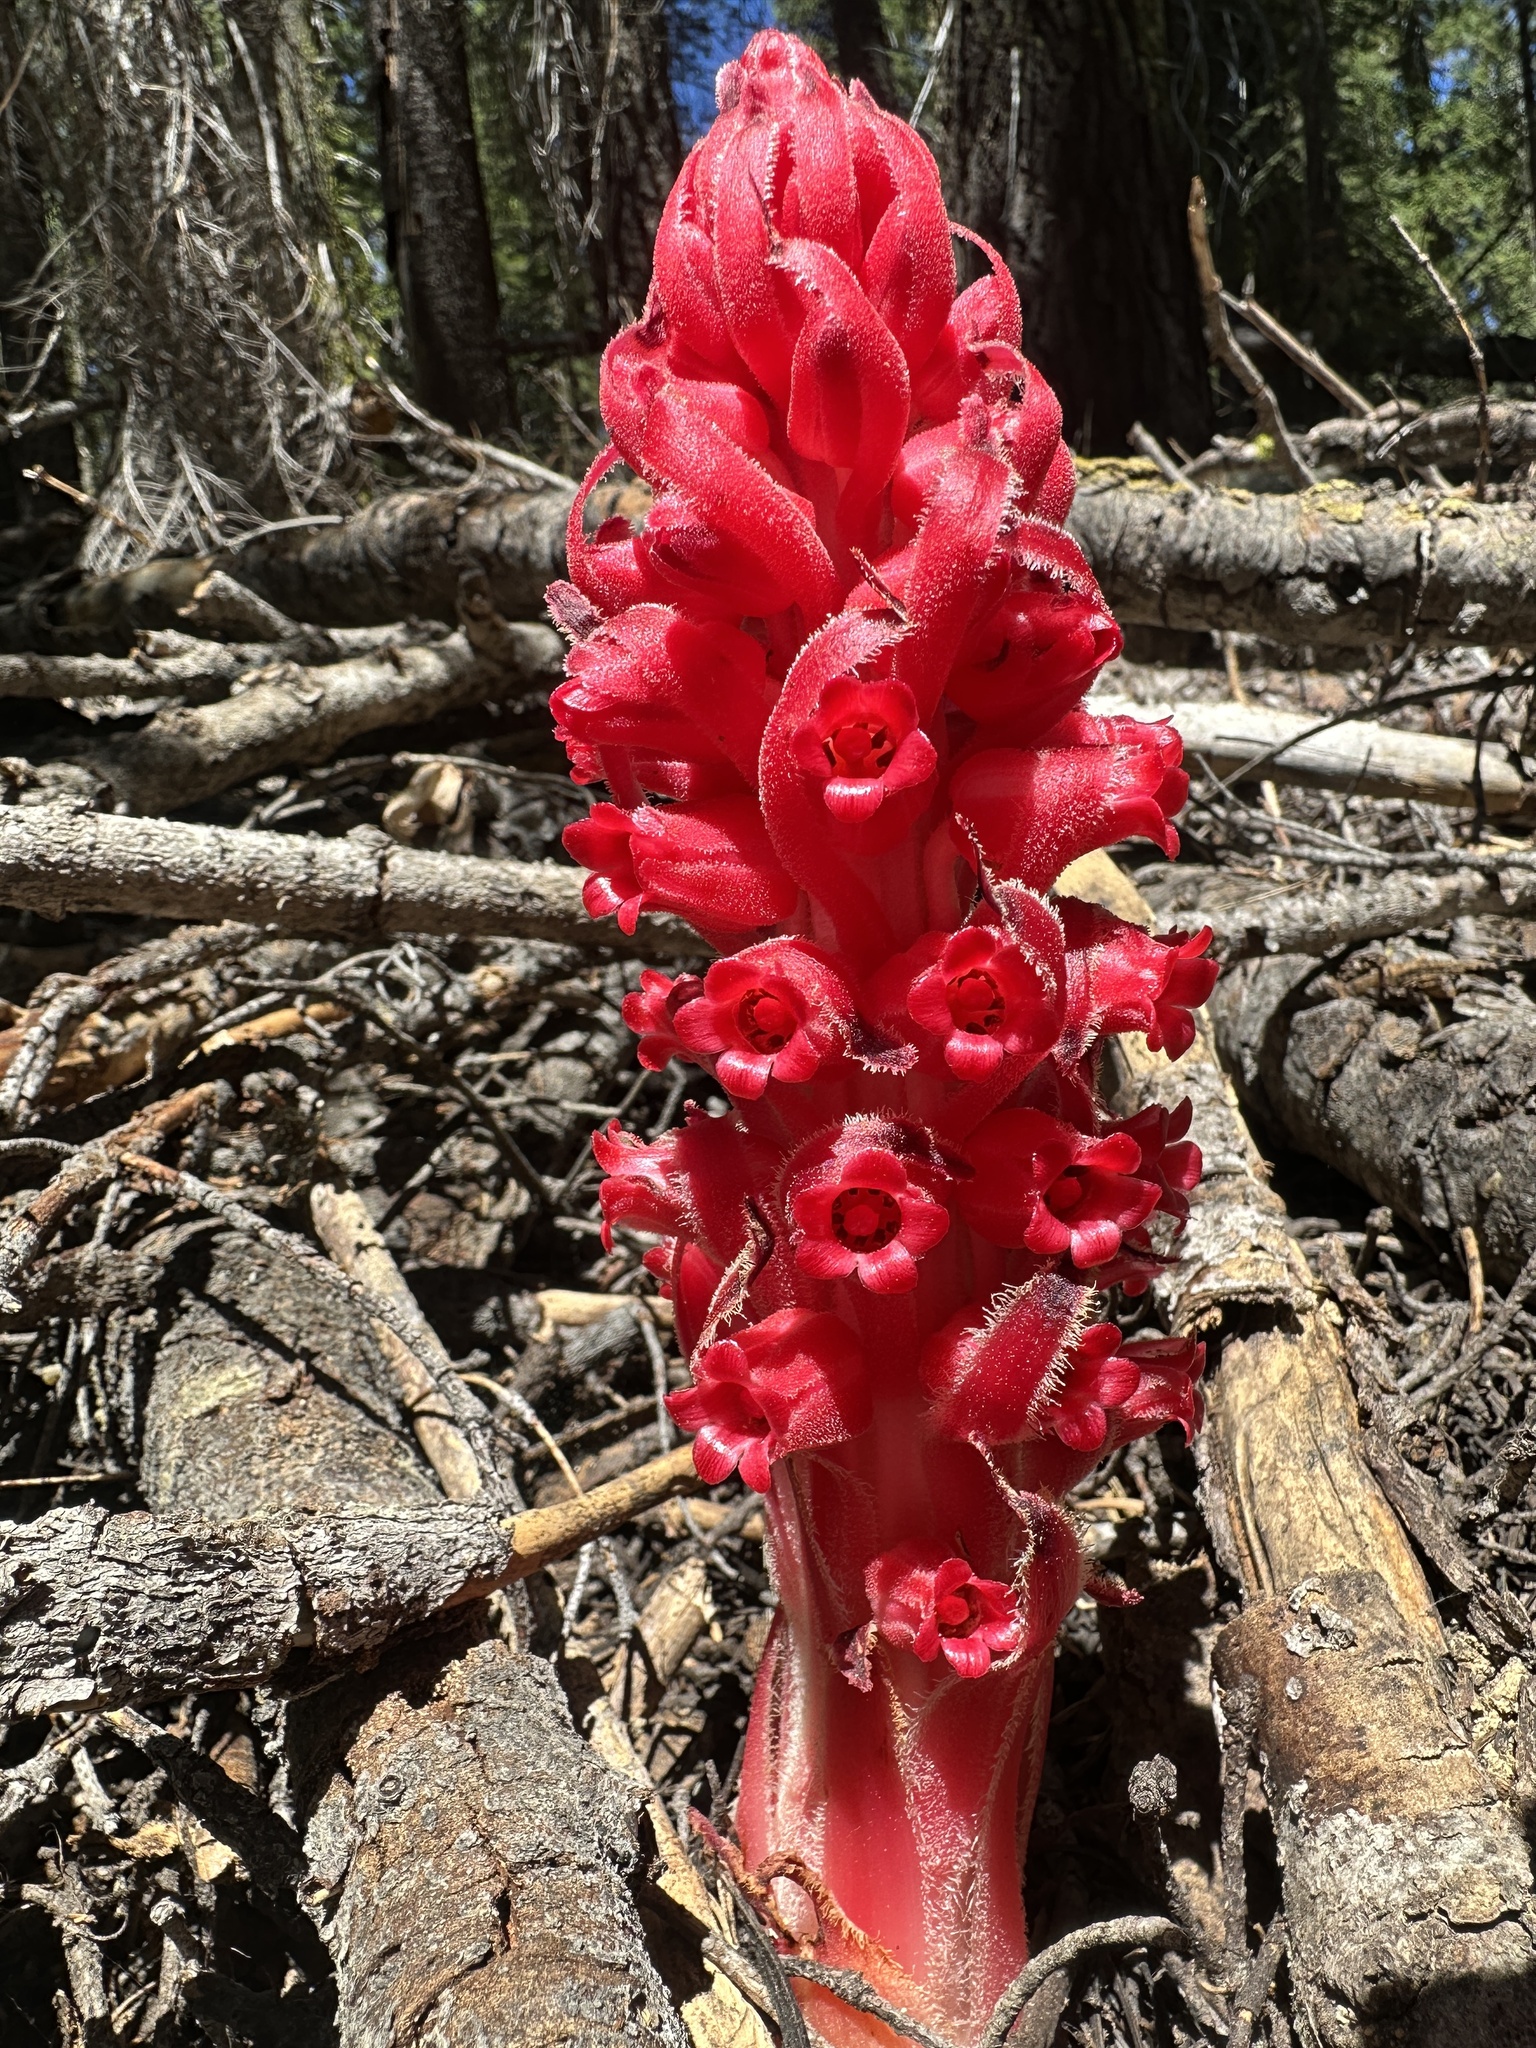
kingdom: Plantae
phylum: Tracheophyta
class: Magnoliopsida
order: Ericales
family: Ericaceae
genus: Sarcodes
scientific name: Sarcodes sanguinea
